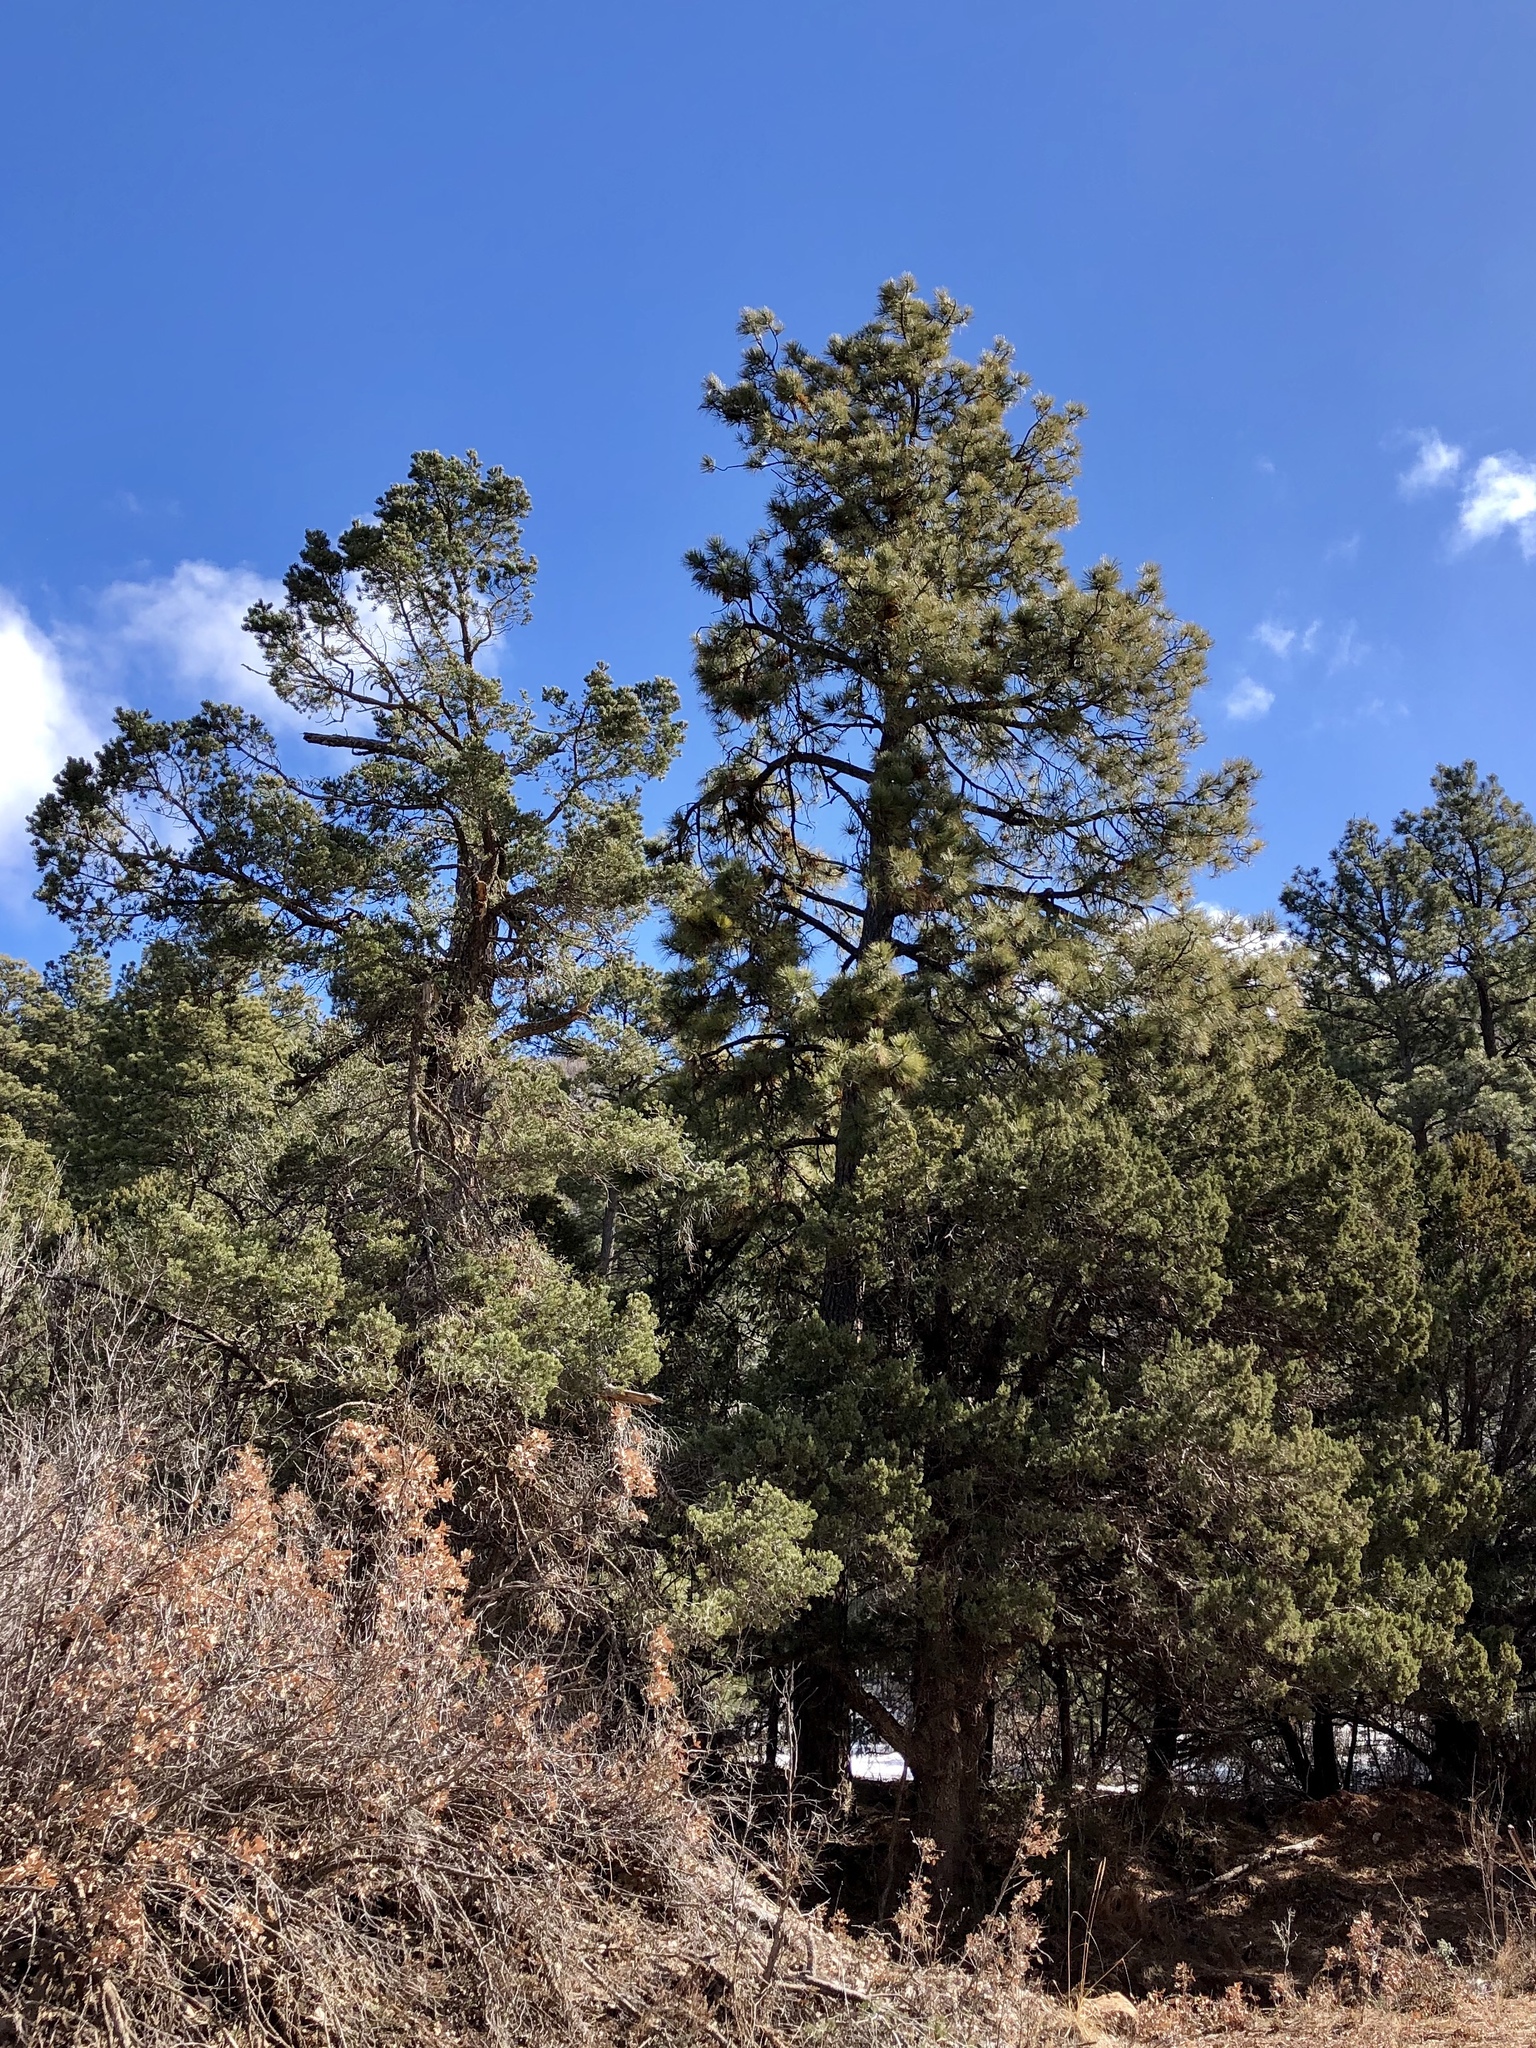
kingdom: Plantae
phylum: Tracheophyta
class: Pinopsida
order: Pinales
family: Pinaceae
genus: Pinus
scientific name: Pinus ponderosa
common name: Western yellow-pine
